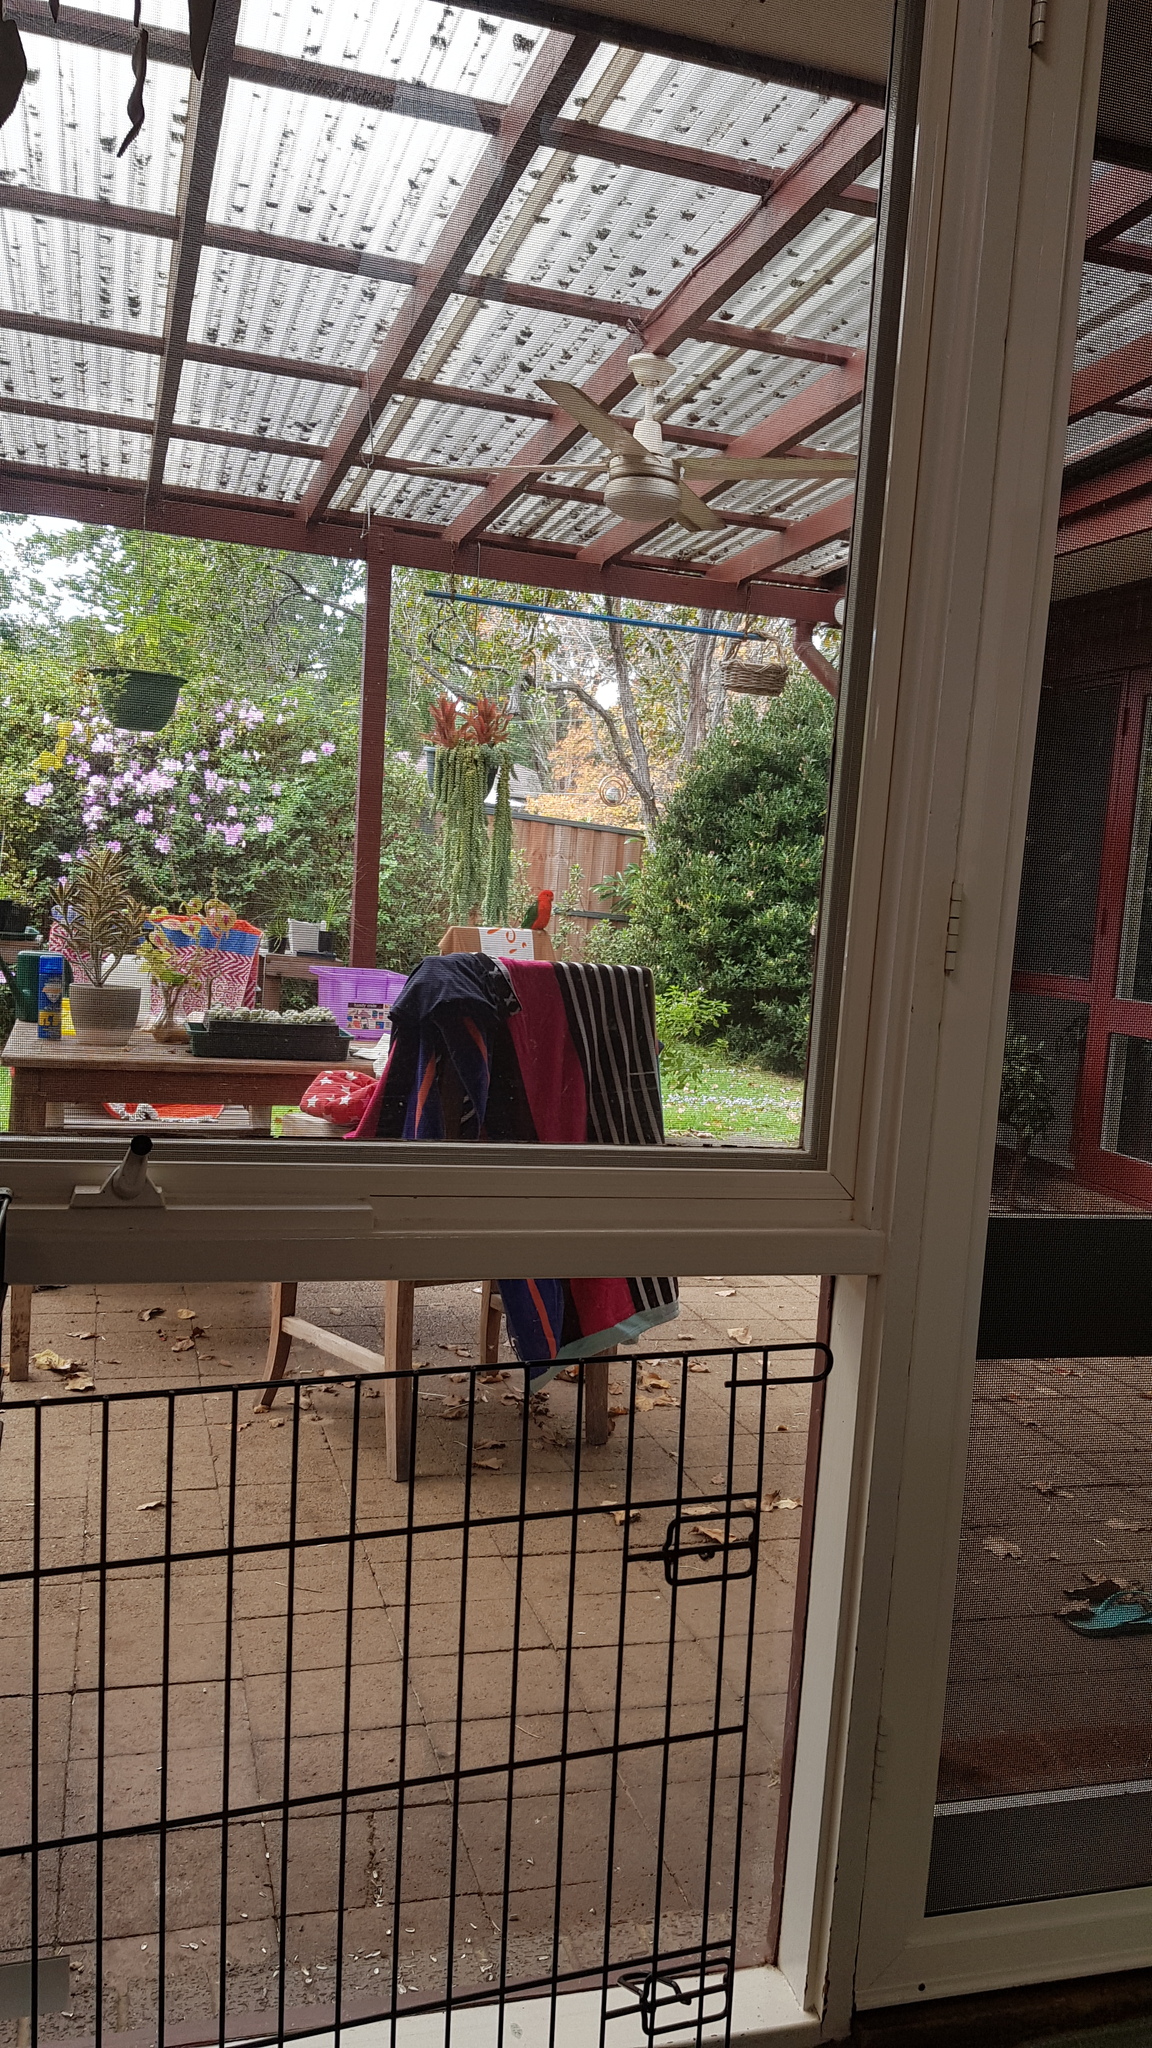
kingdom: Animalia
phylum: Chordata
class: Aves
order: Psittaciformes
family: Psittacidae
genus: Alisterus
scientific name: Alisterus scapularis
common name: Australian king parrot
